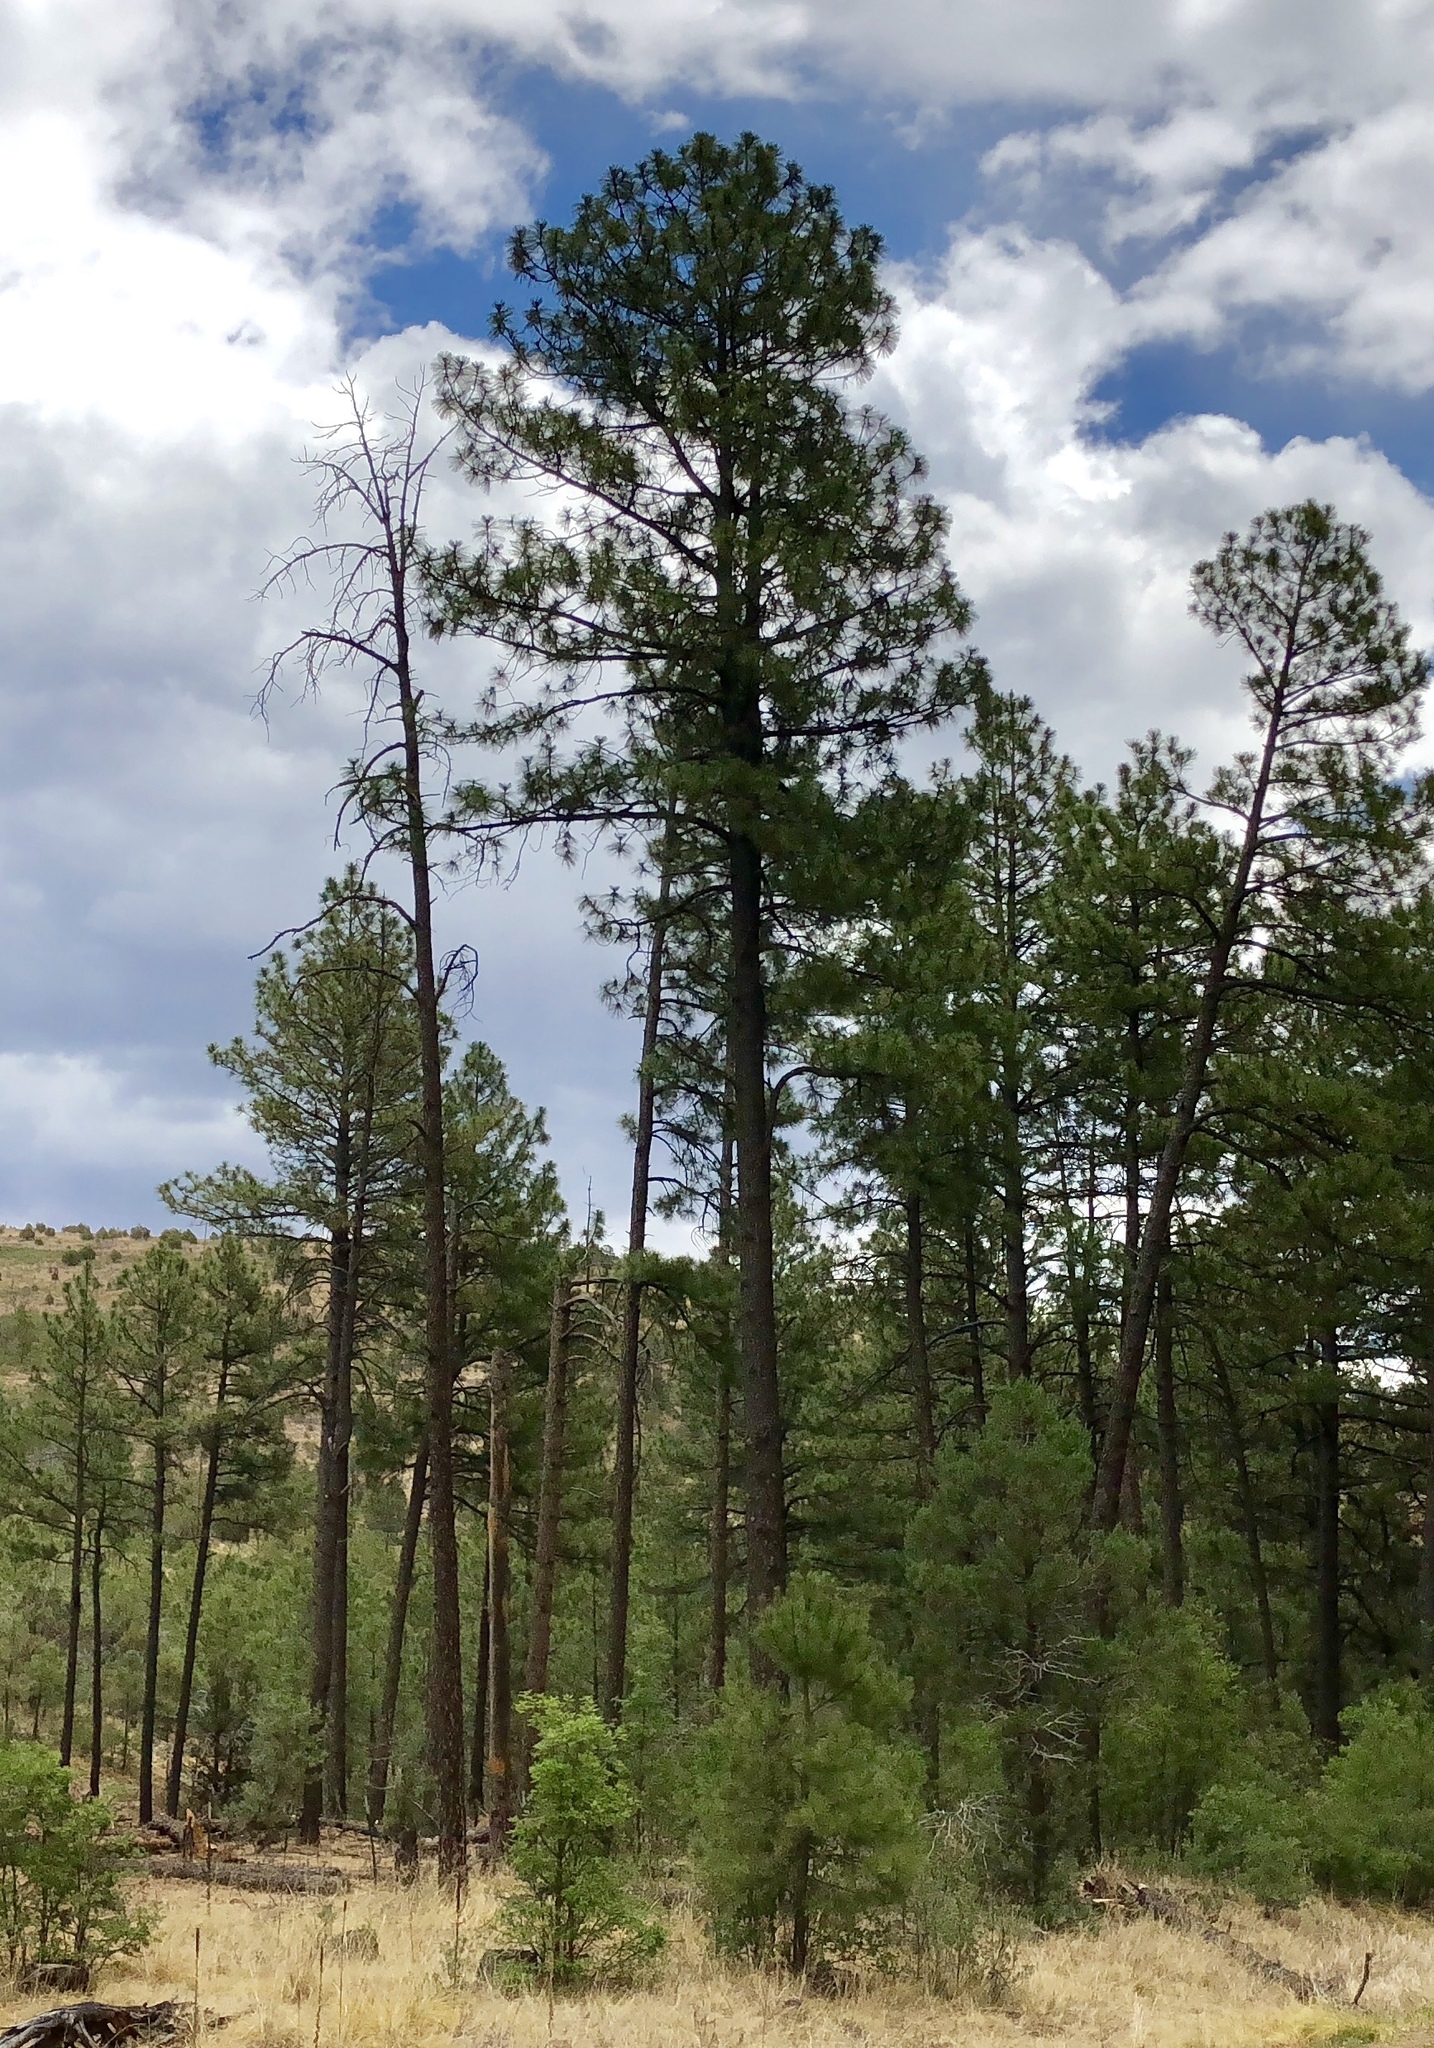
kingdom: Plantae
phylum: Tracheophyta
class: Pinopsida
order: Pinales
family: Pinaceae
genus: Pinus
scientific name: Pinus ponderosa
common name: Western yellow-pine
